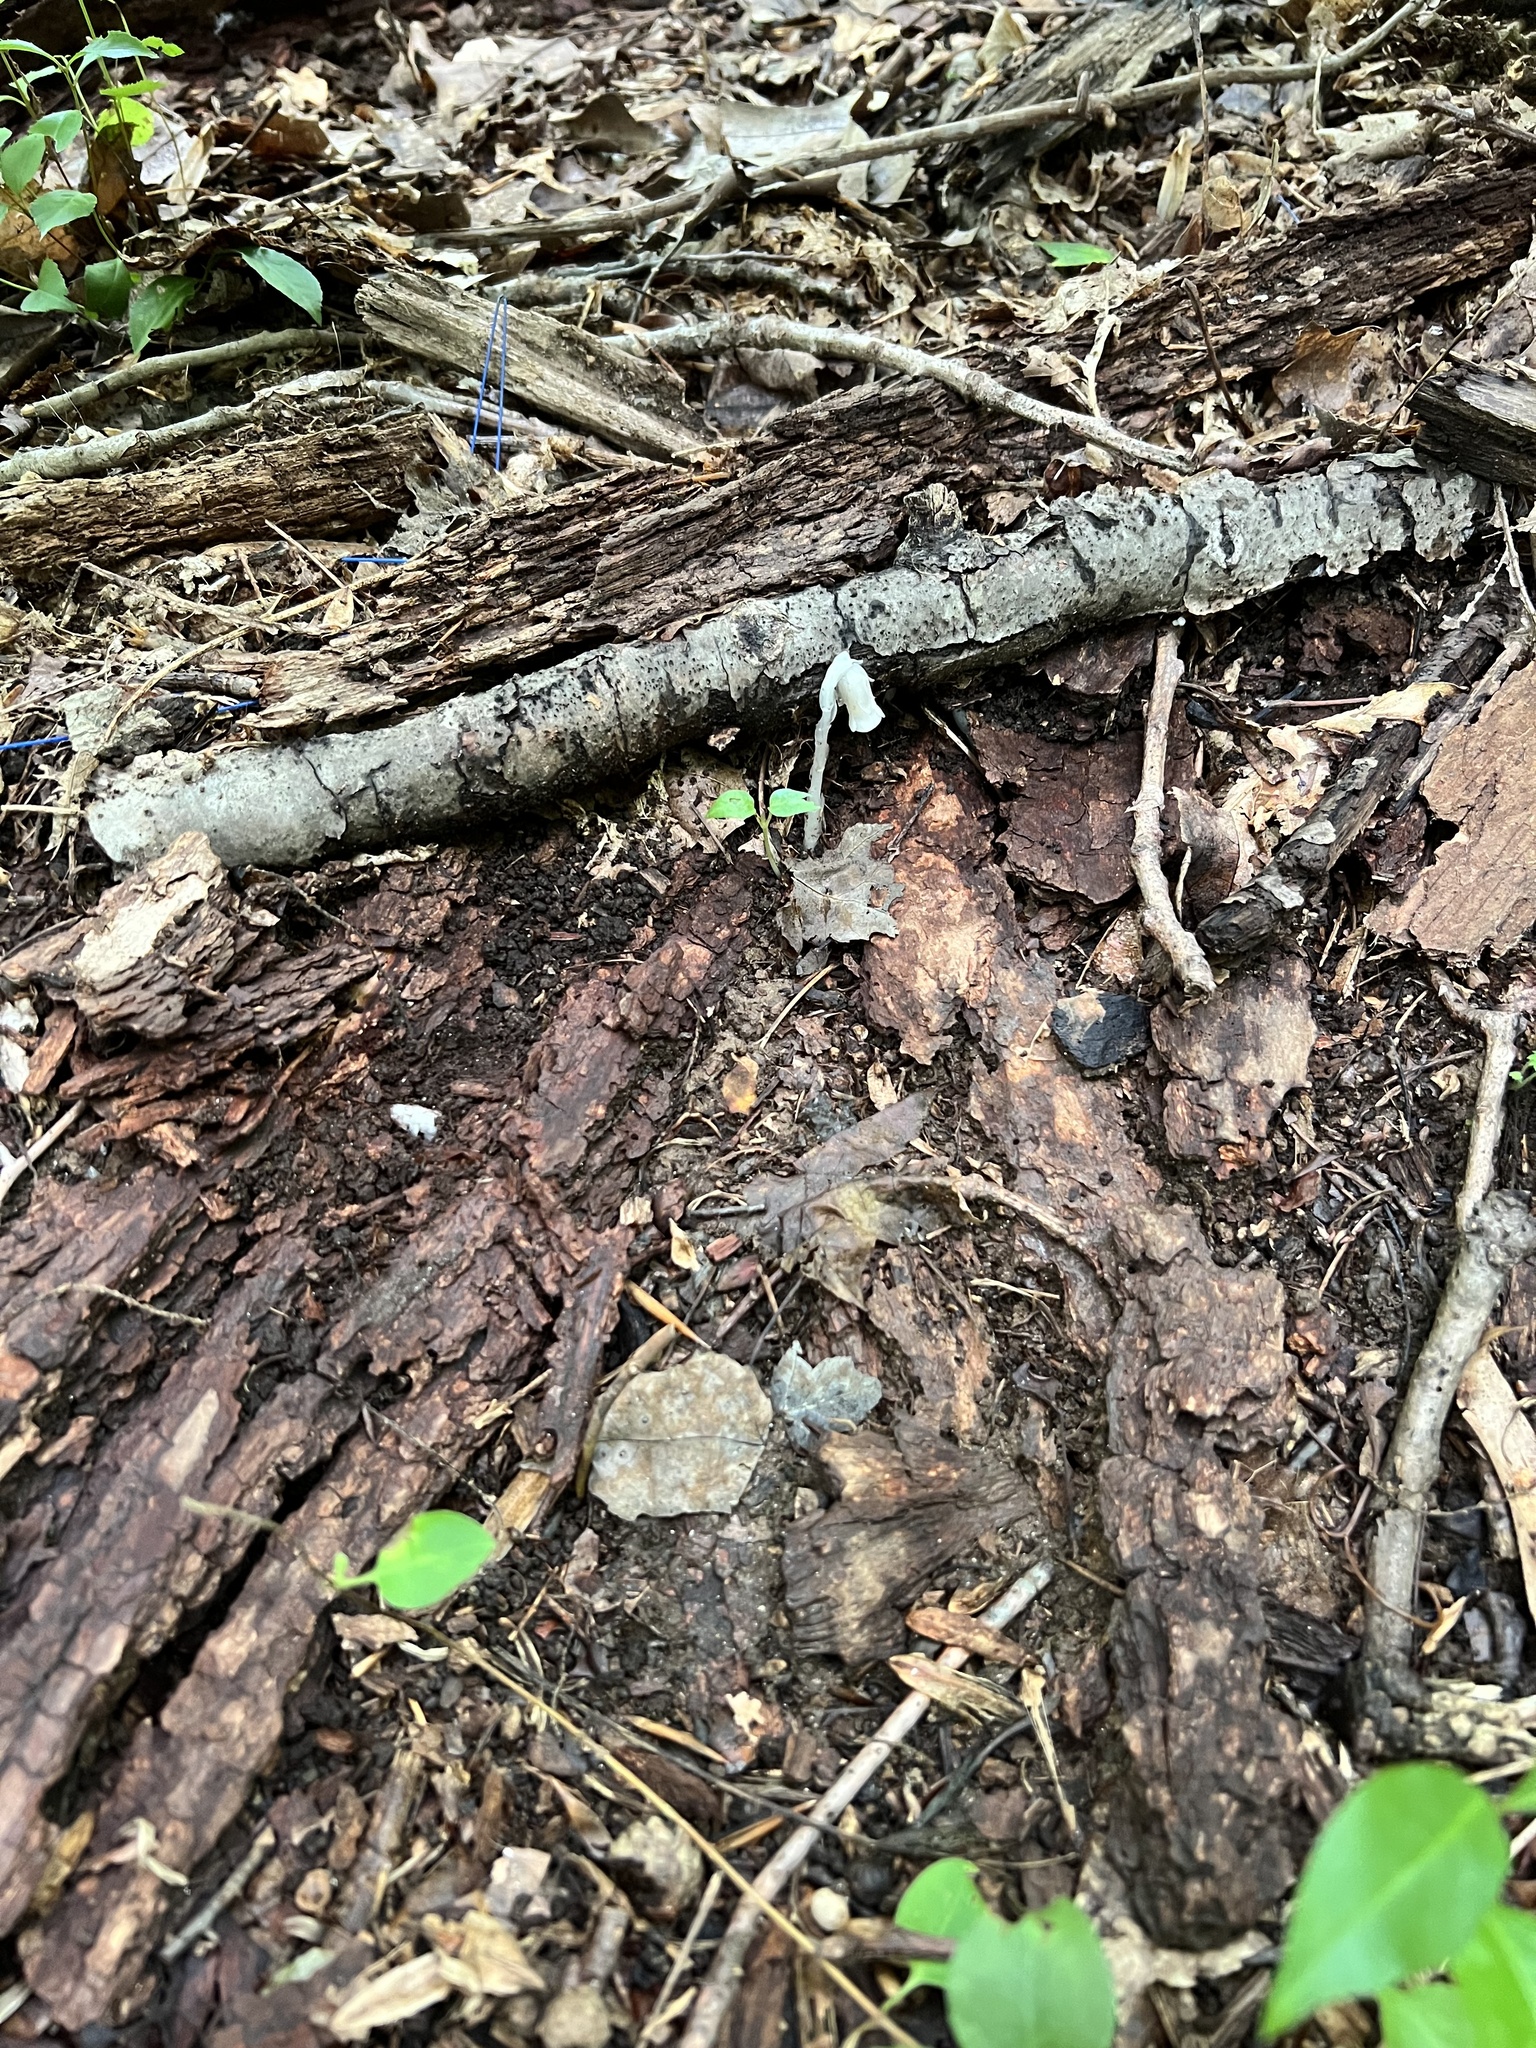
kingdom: Plantae
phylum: Tracheophyta
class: Magnoliopsida
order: Ericales
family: Ericaceae
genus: Monotropa
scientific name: Monotropa uniflora
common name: Convulsion root
